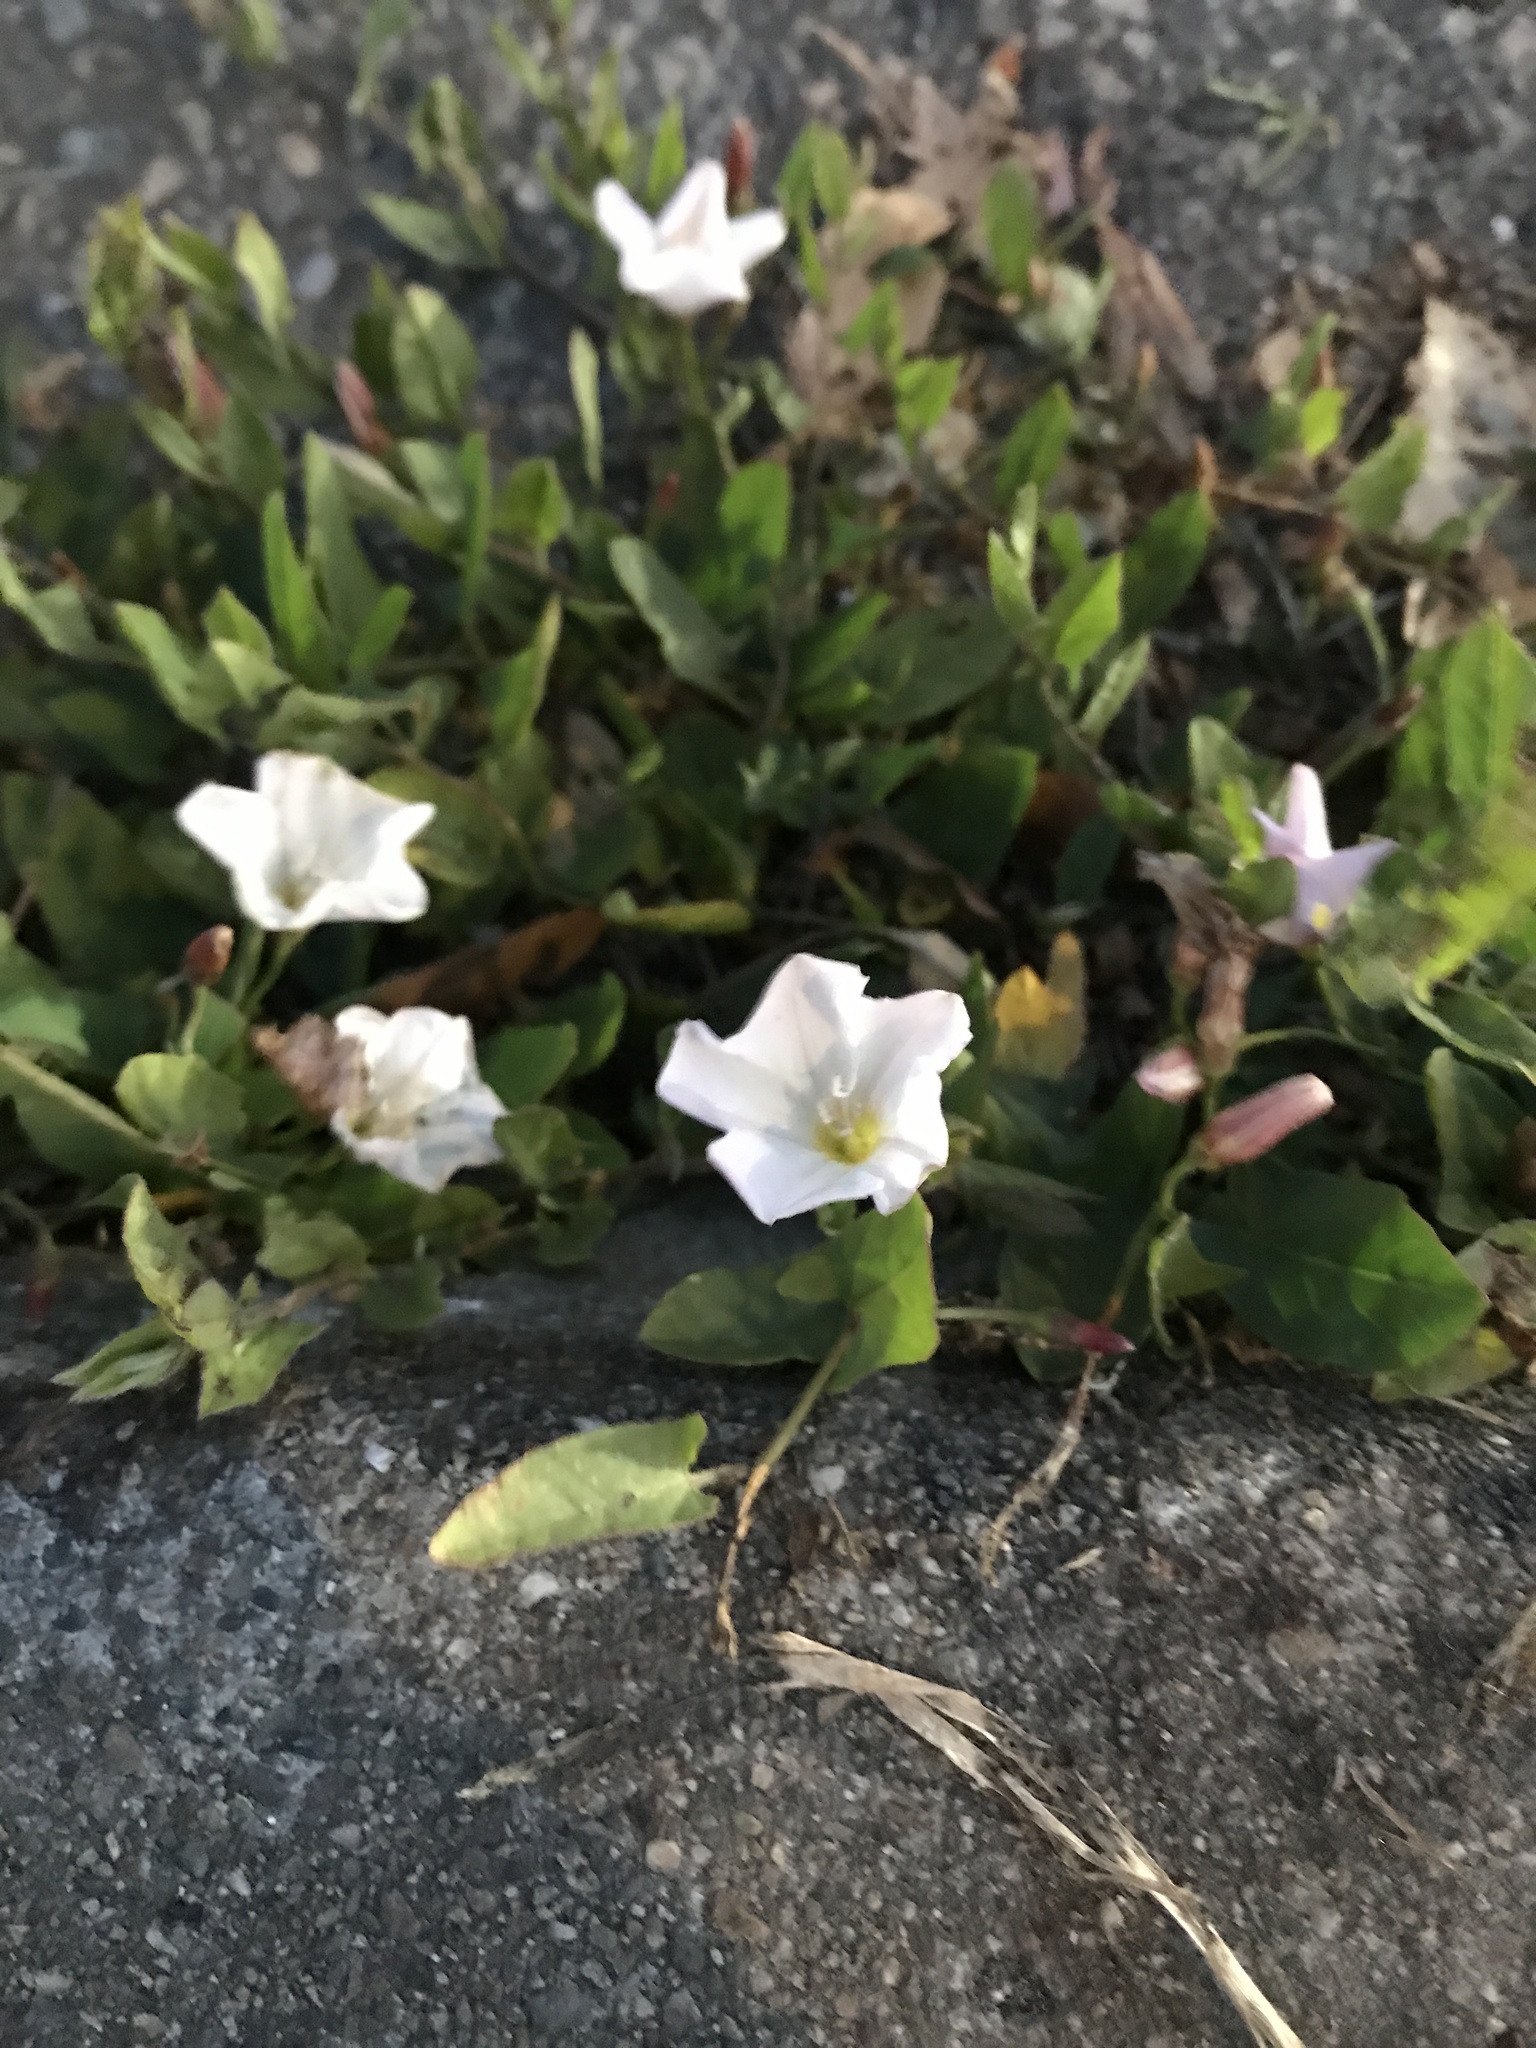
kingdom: Plantae
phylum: Tracheophyta
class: Magnoliopsida
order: Solanales
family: Convolvulaceae
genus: Convolvulus
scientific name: Convolvulus arvensis
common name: Field bindweed
